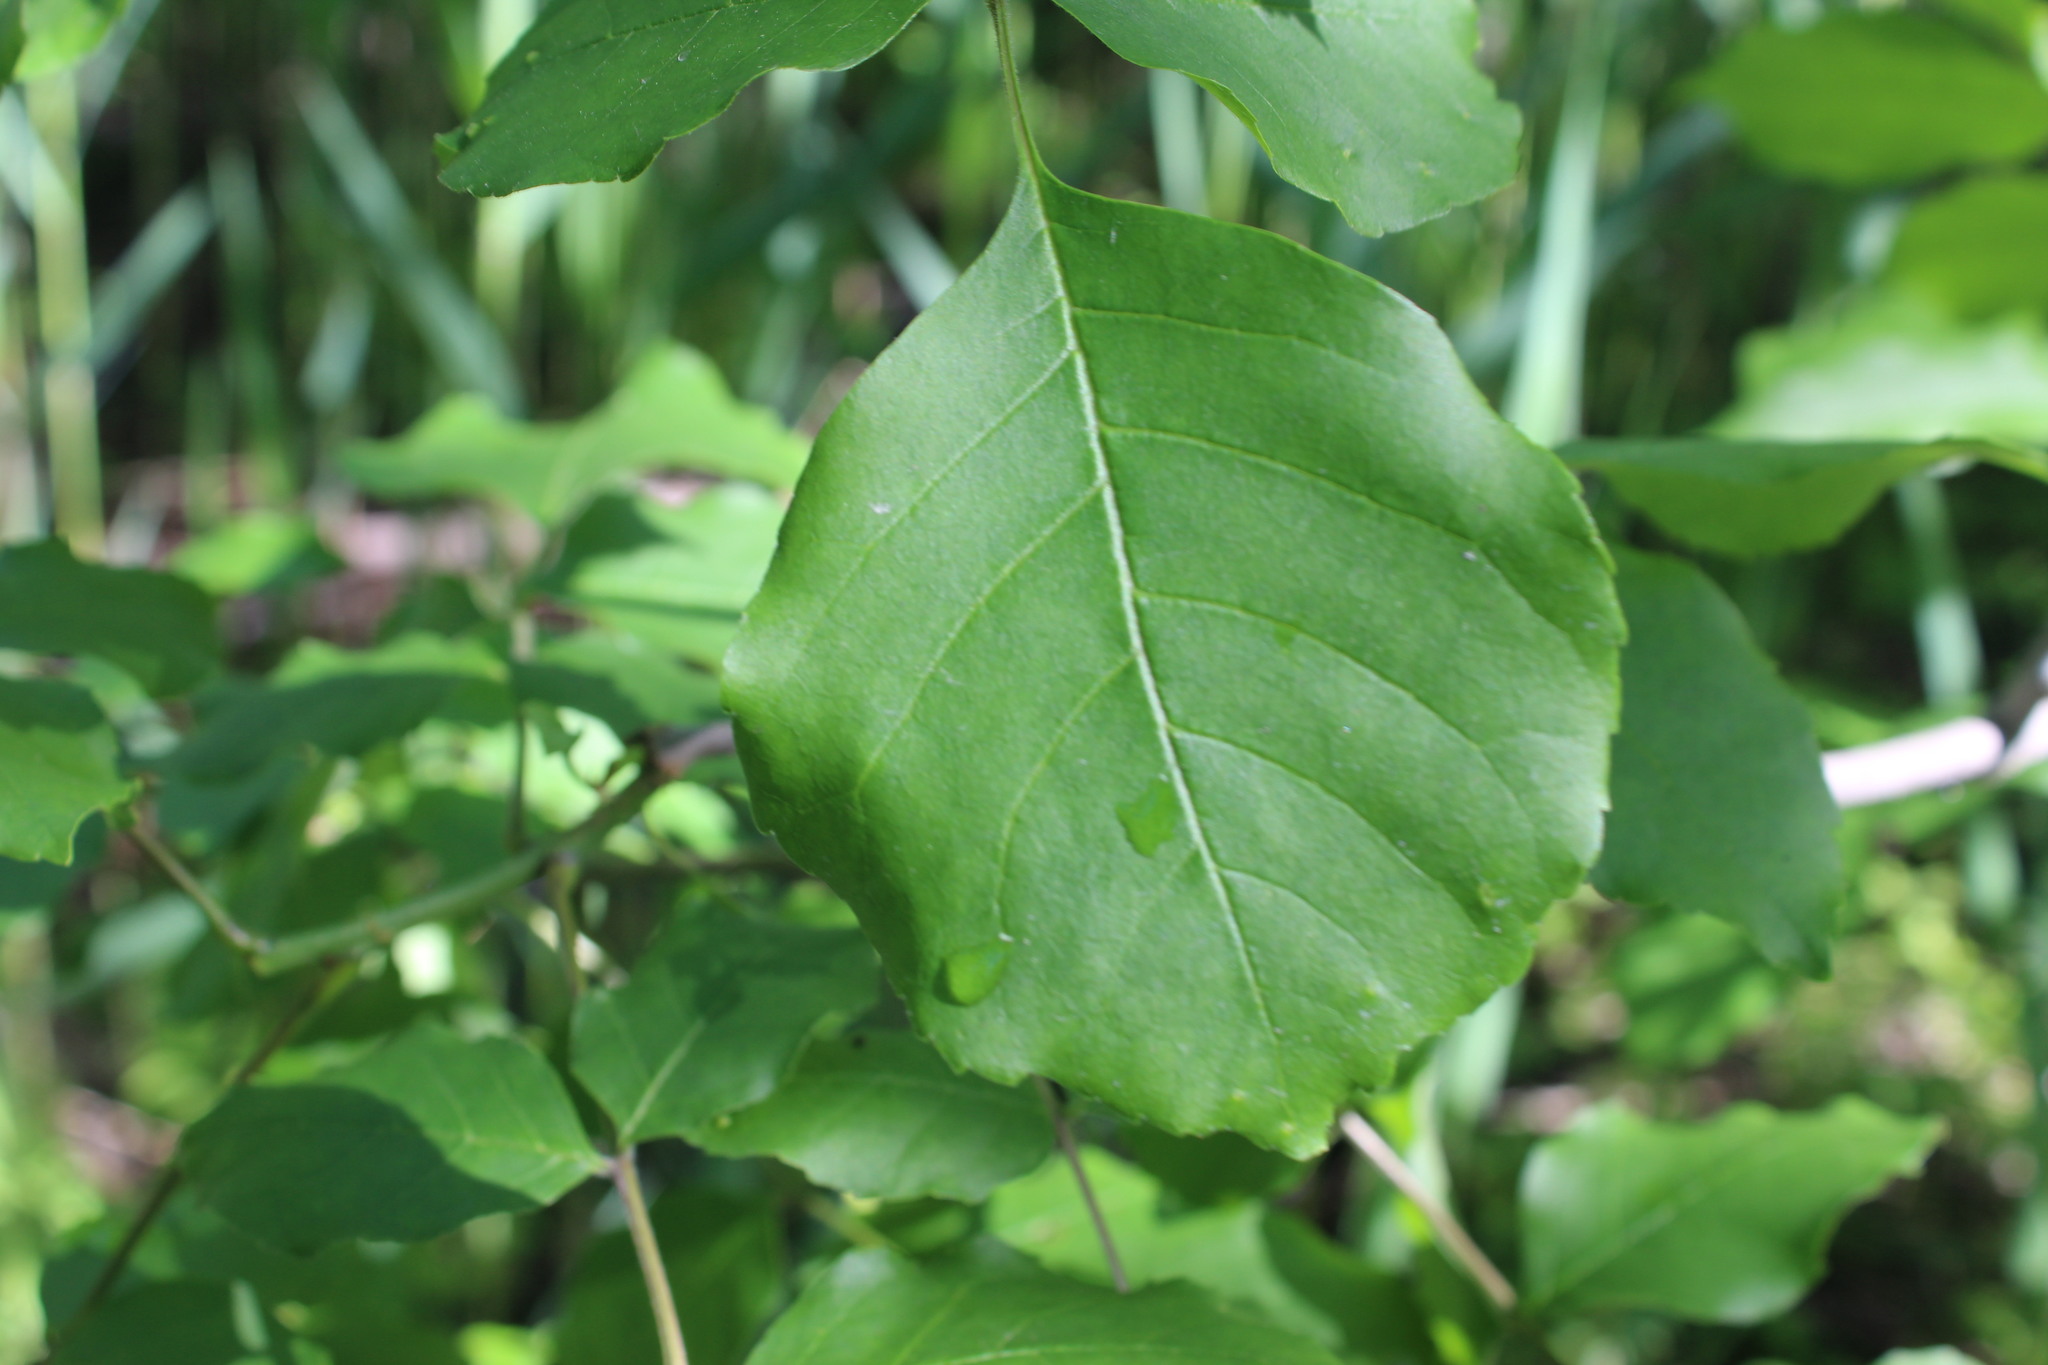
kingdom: Plantae
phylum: Tracheophyta
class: Magnoliopsida
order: Lamiales
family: Oleaceae
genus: Fraxinus
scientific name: Fraxinus pennsylvanica
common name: Green ash
